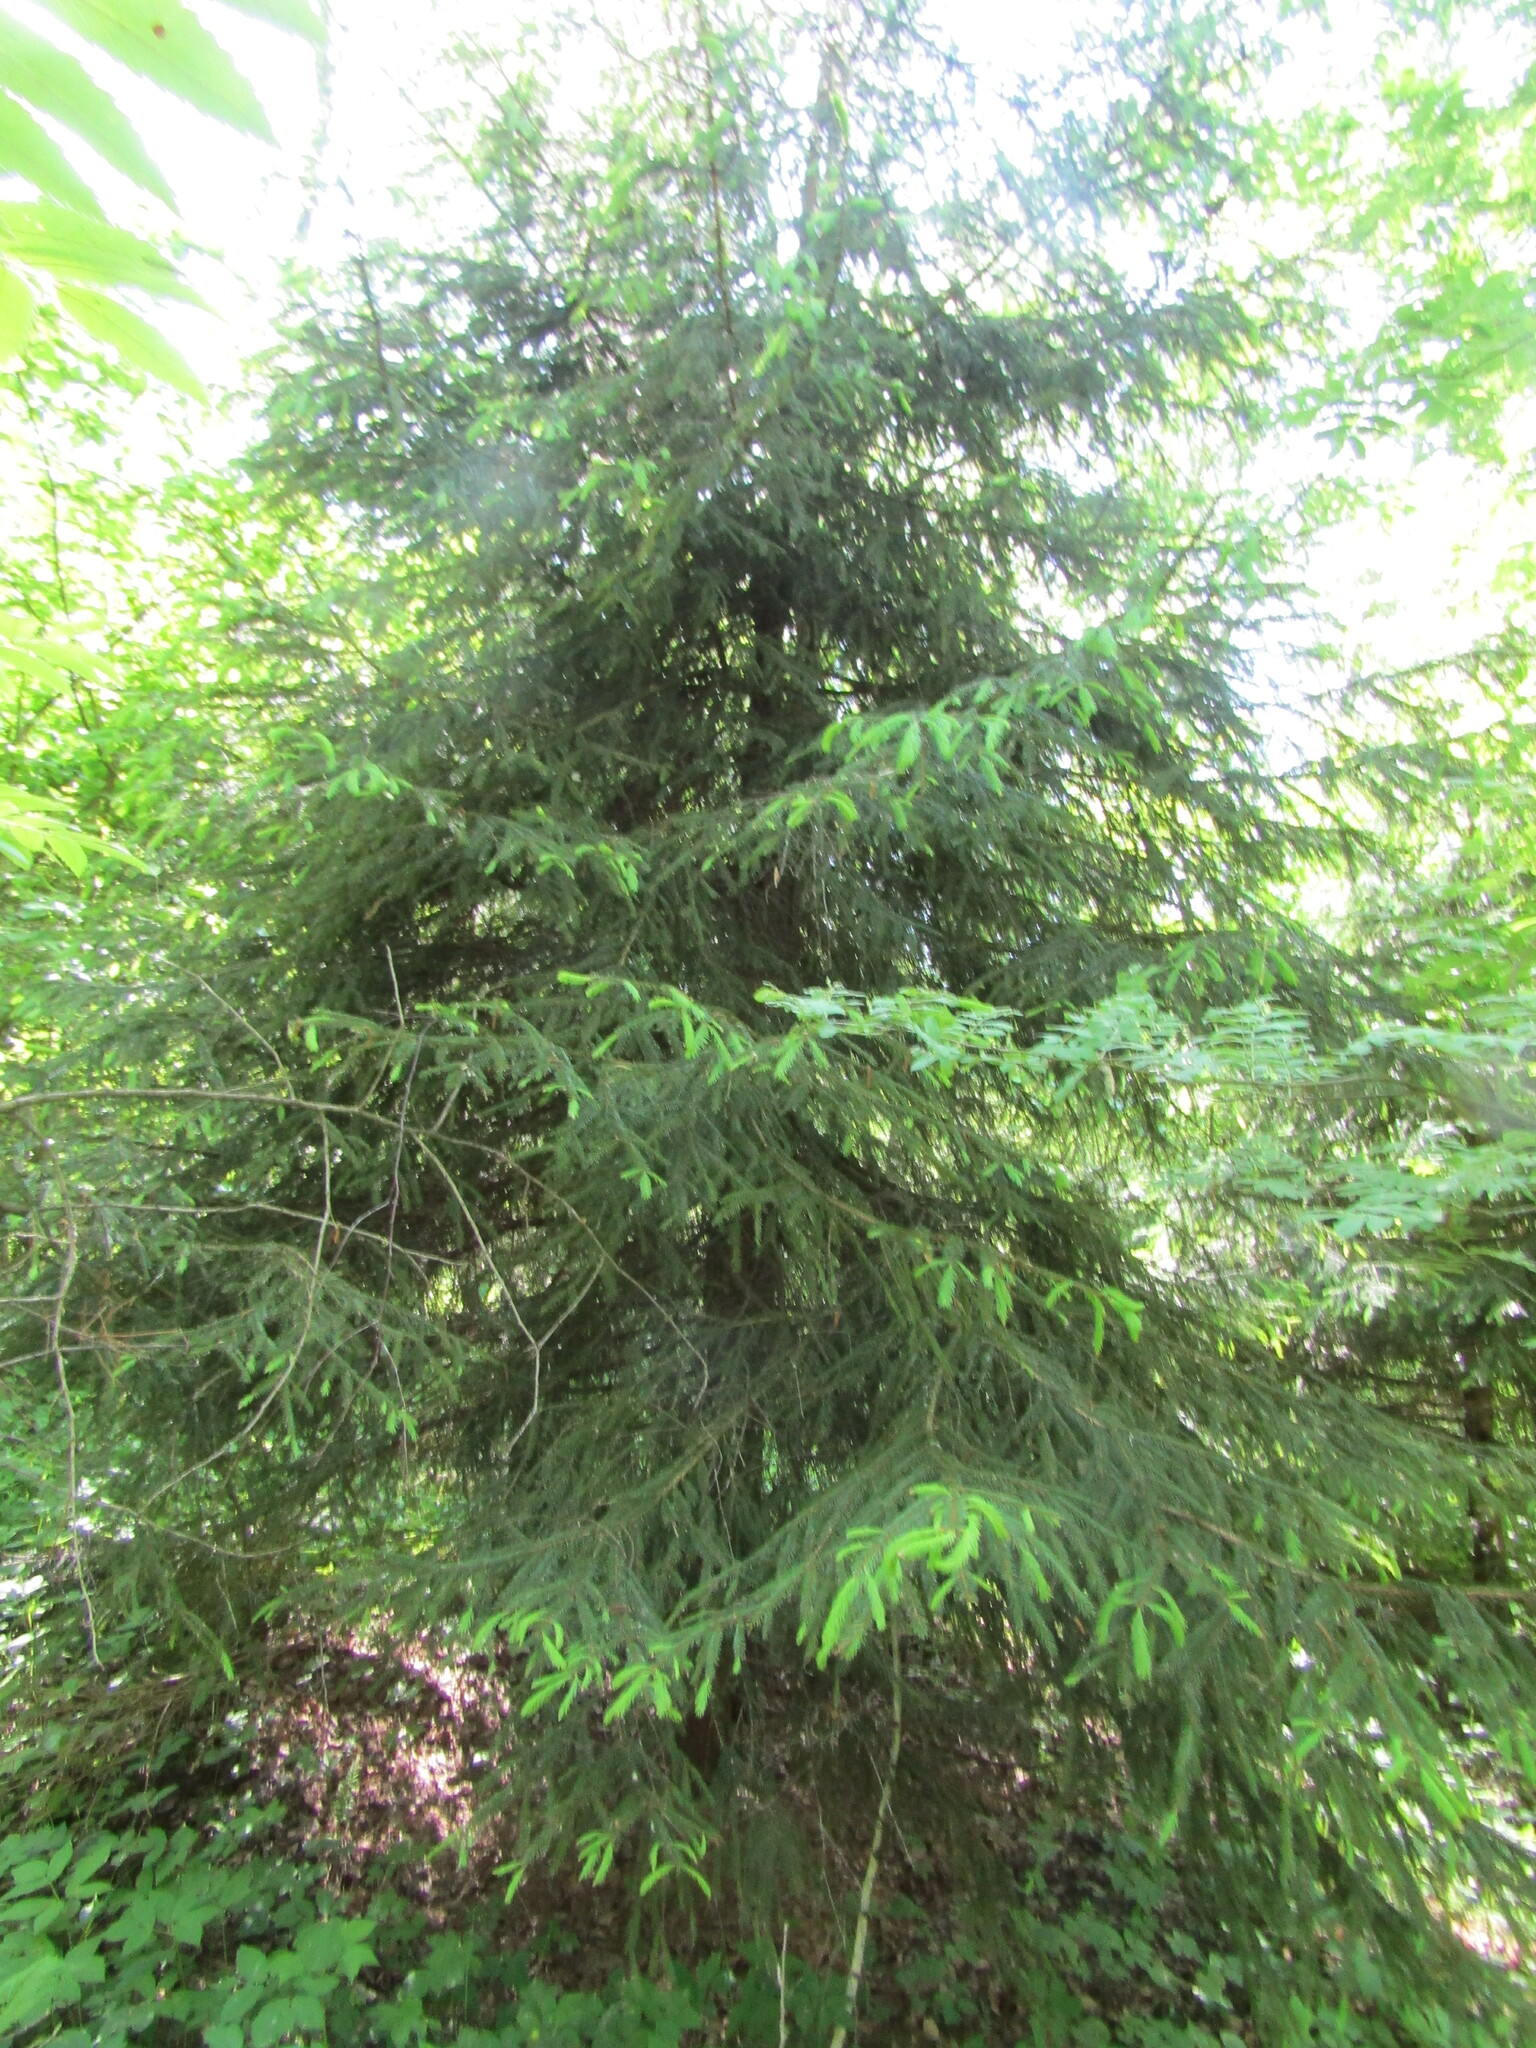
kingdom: Plantae
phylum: Tracheophyta
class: Pinopsida
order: Pinales
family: Pinaceae
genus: Picea
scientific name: Picea abies
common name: Norway spruce
